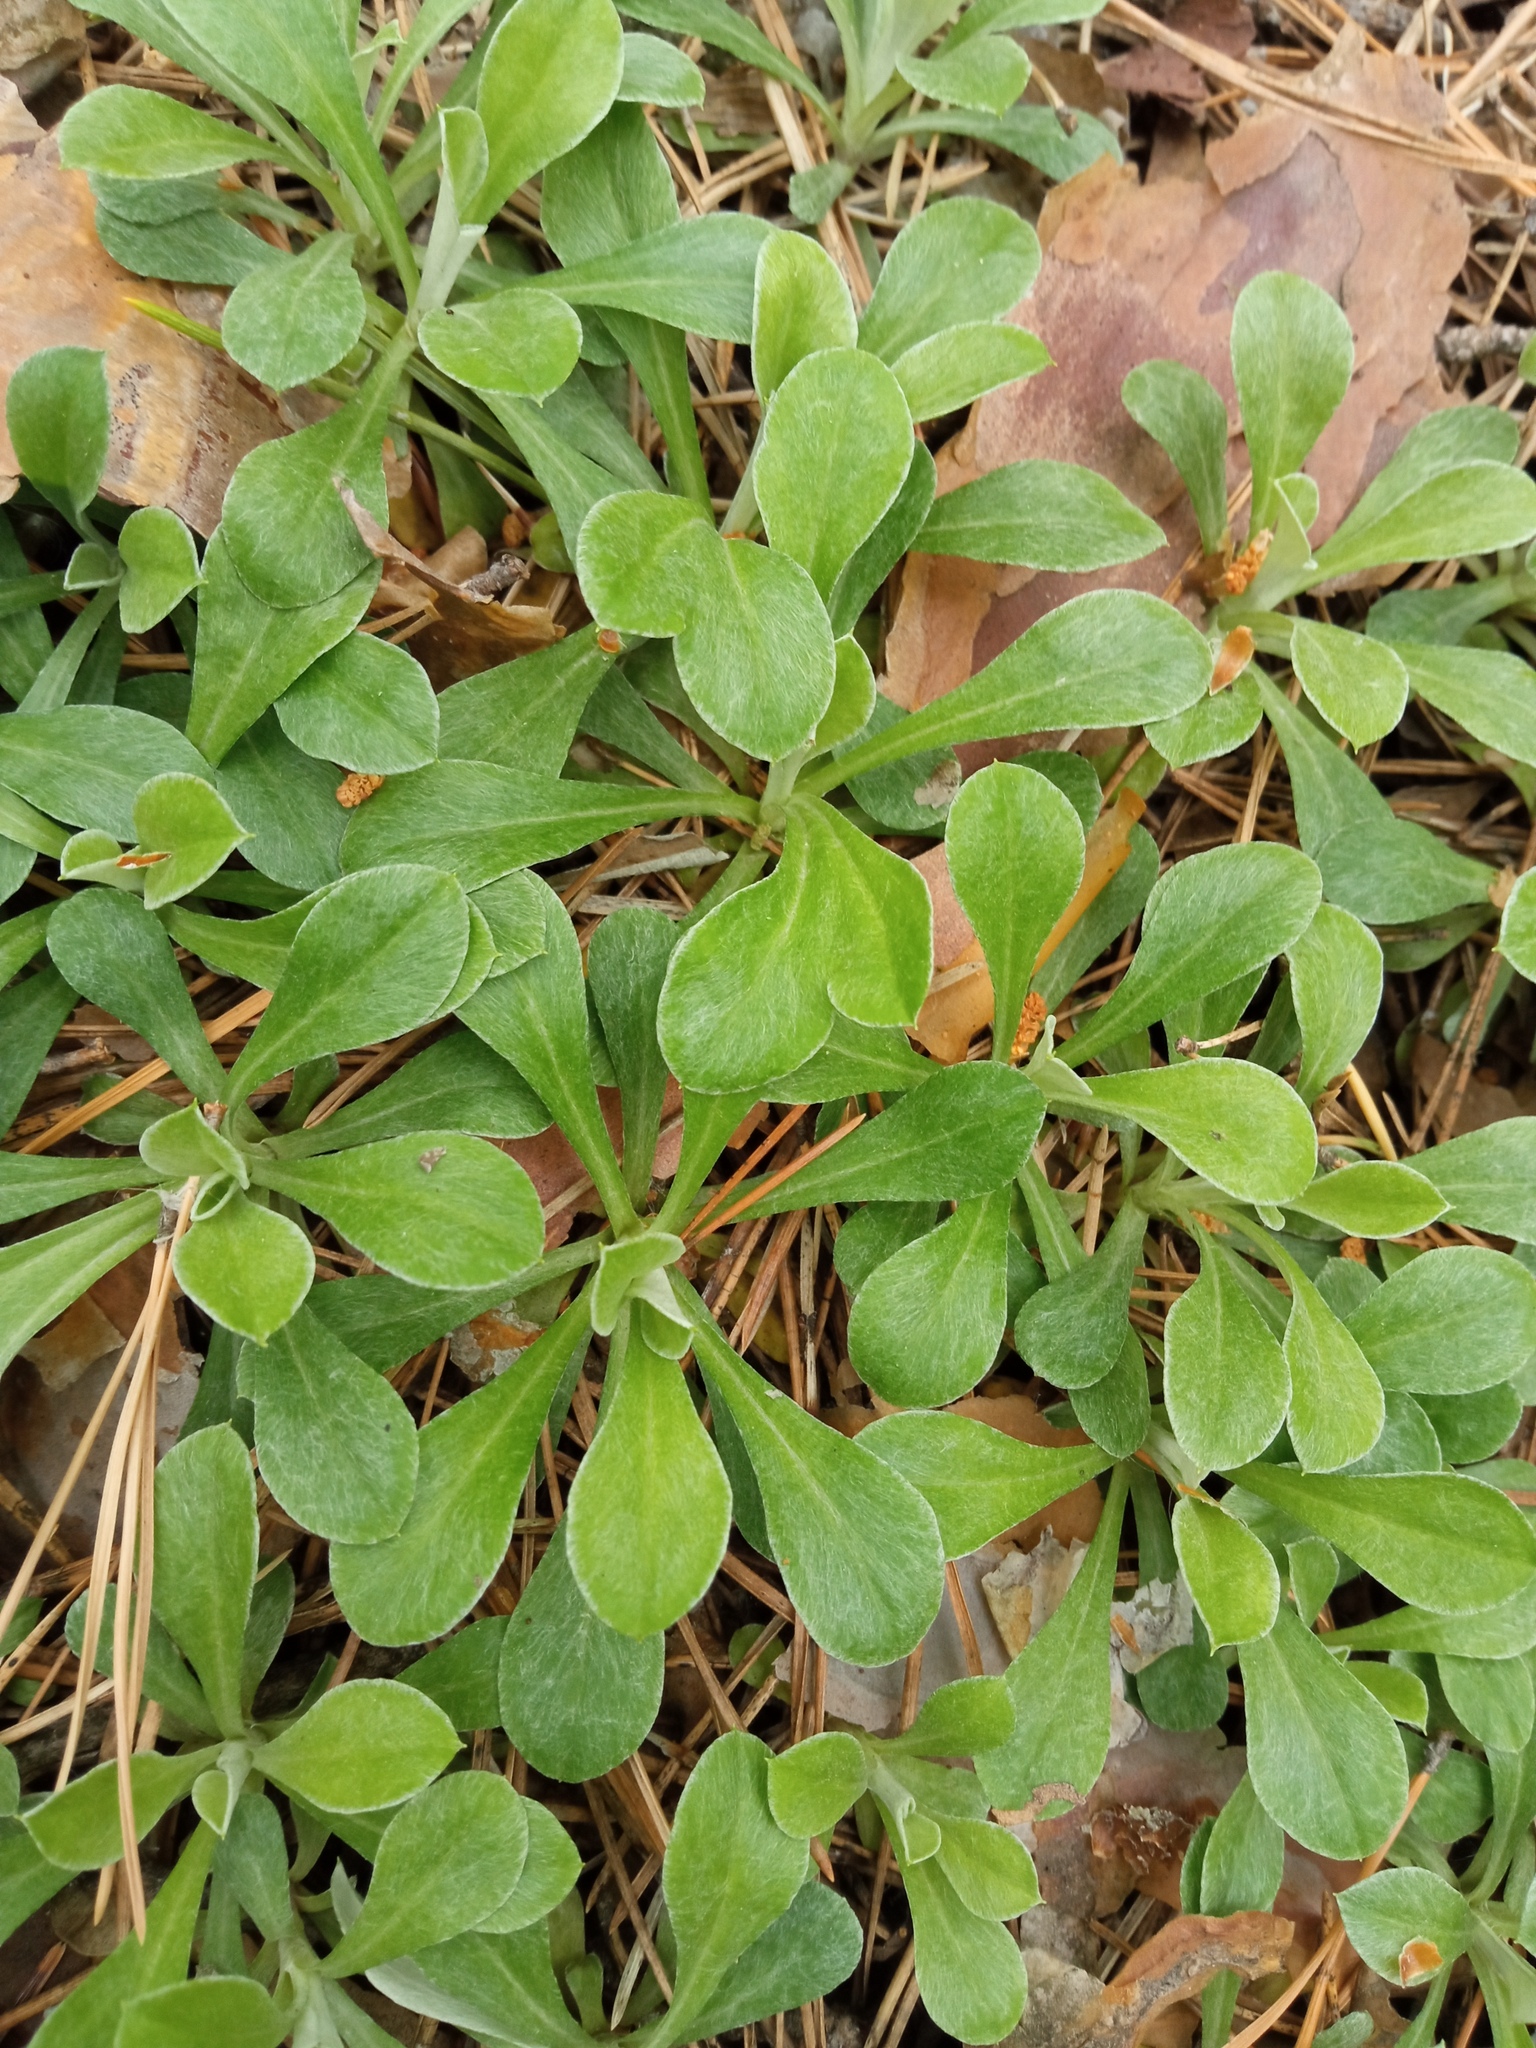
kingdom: Plantae
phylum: Tracheophyta
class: Magnoliopsida
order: Asterales
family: Asteraceae
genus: Antennaria
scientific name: Antennaria dioica
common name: Mountain everlasting
